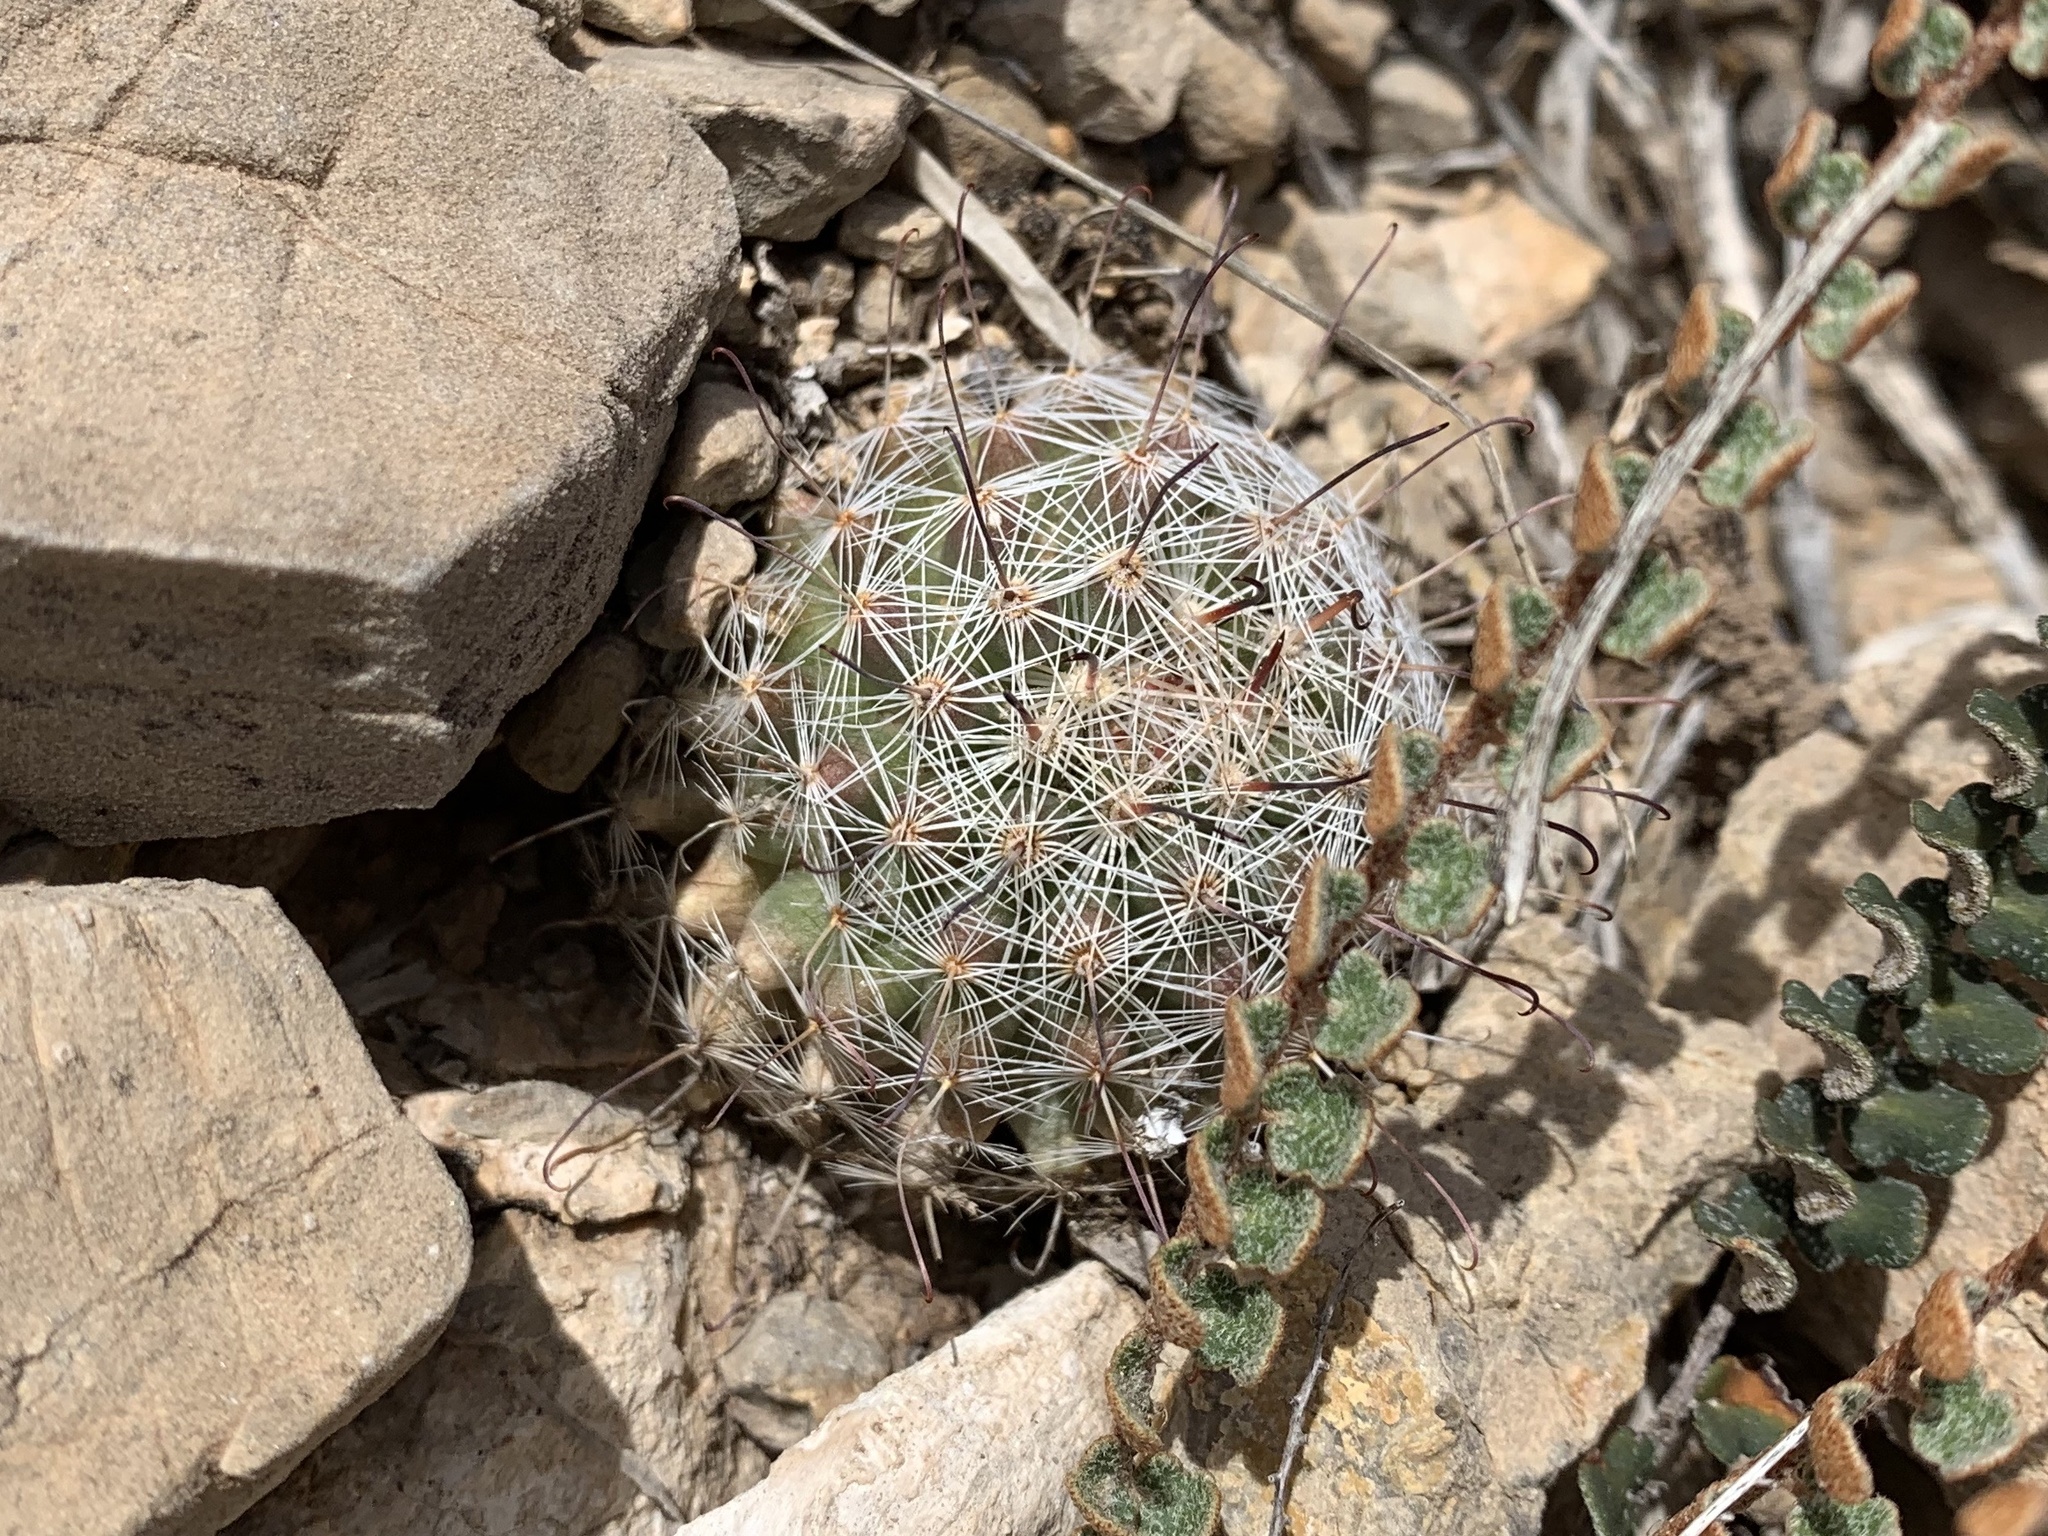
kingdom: Plantae
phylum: Tracheophyta
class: Magnoliopsida
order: Caryophyllales
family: Cactaceae
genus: Cochemiea
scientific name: Cochemiea grahamii
